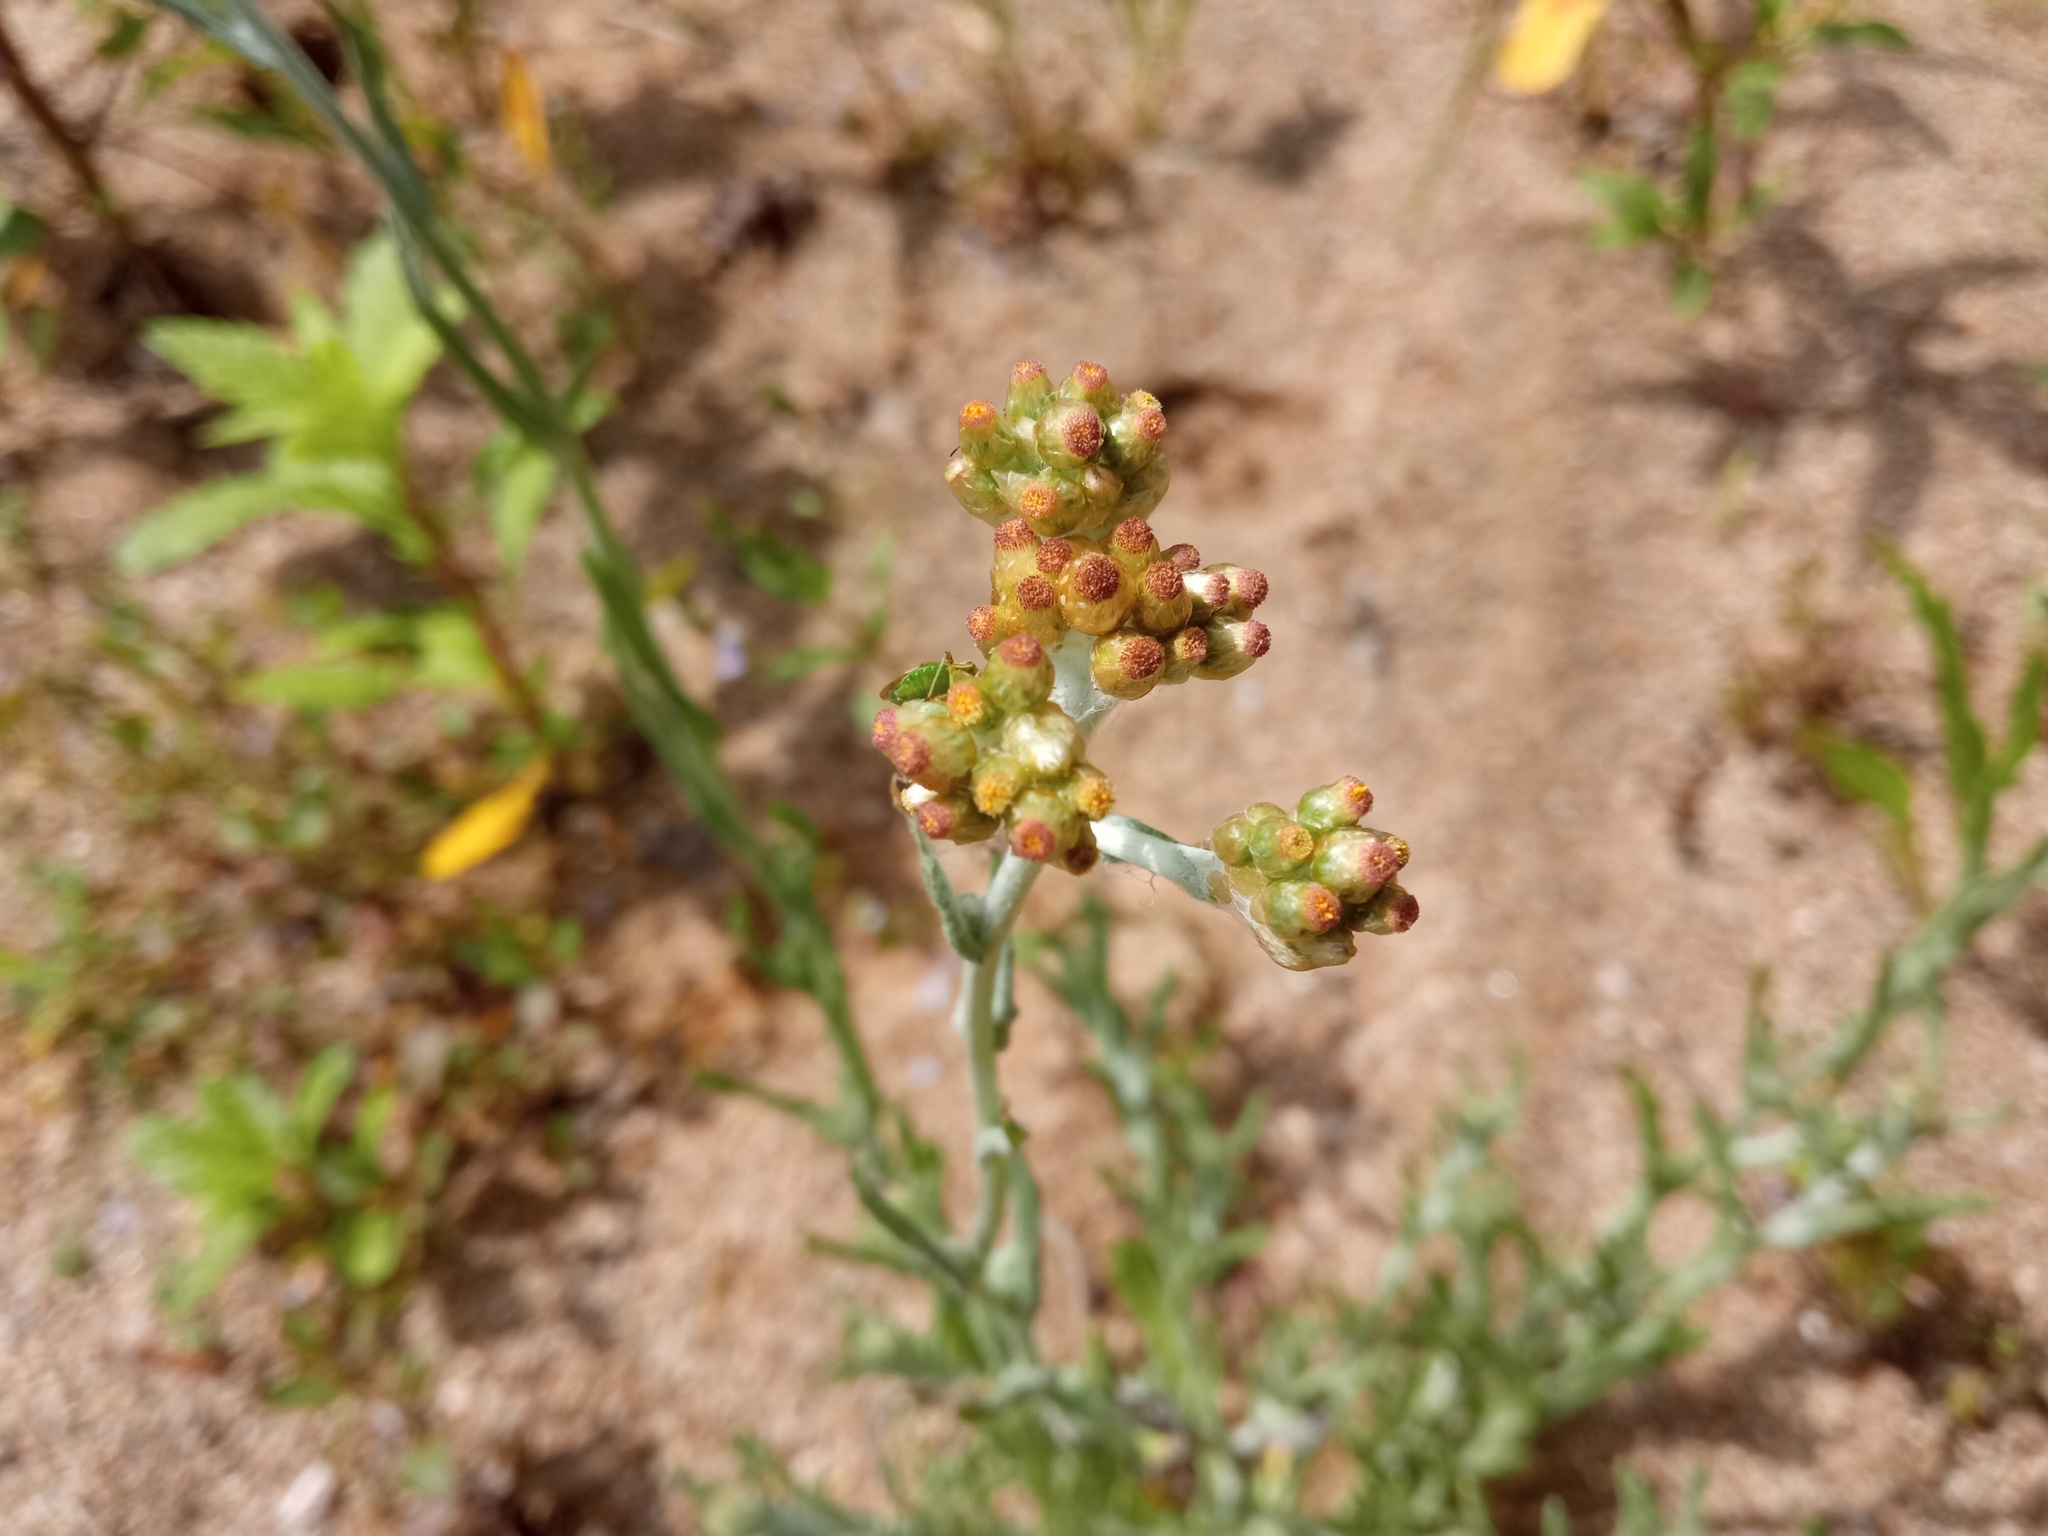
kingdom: Plantae
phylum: Tracheophyta
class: Magnoliopsida
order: Asterales
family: Asteraceae
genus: Helichrysum
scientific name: Helichrysum luteoalbum
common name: Daisy
